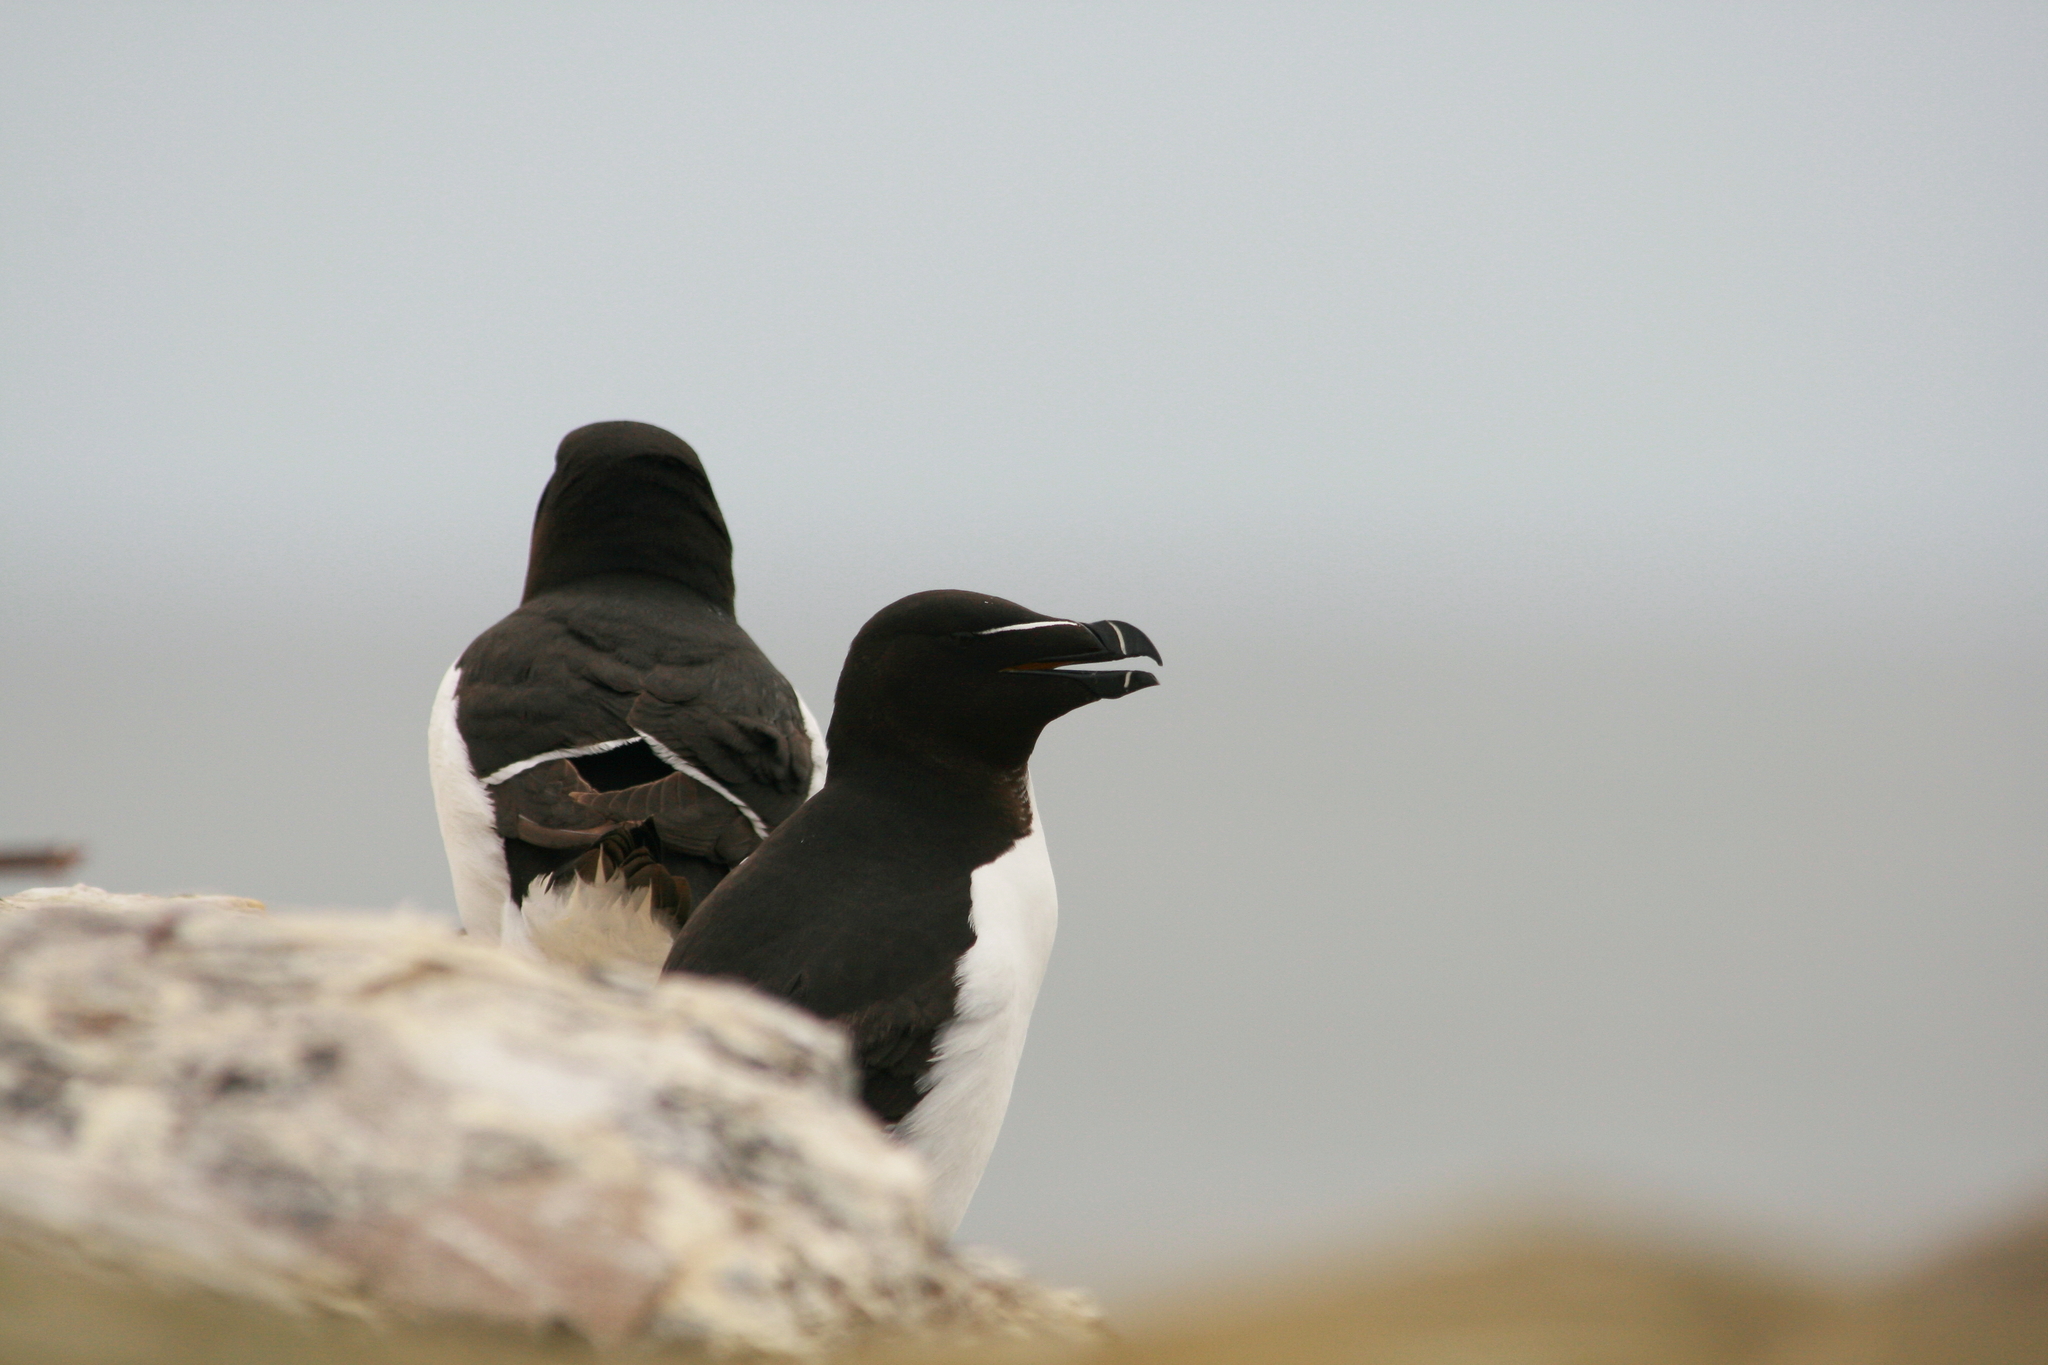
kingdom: Animalia
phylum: Chordata
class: Aves
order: Charadriiformes
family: Alcidae
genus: Alca
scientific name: Alca torda
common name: Razorbill
